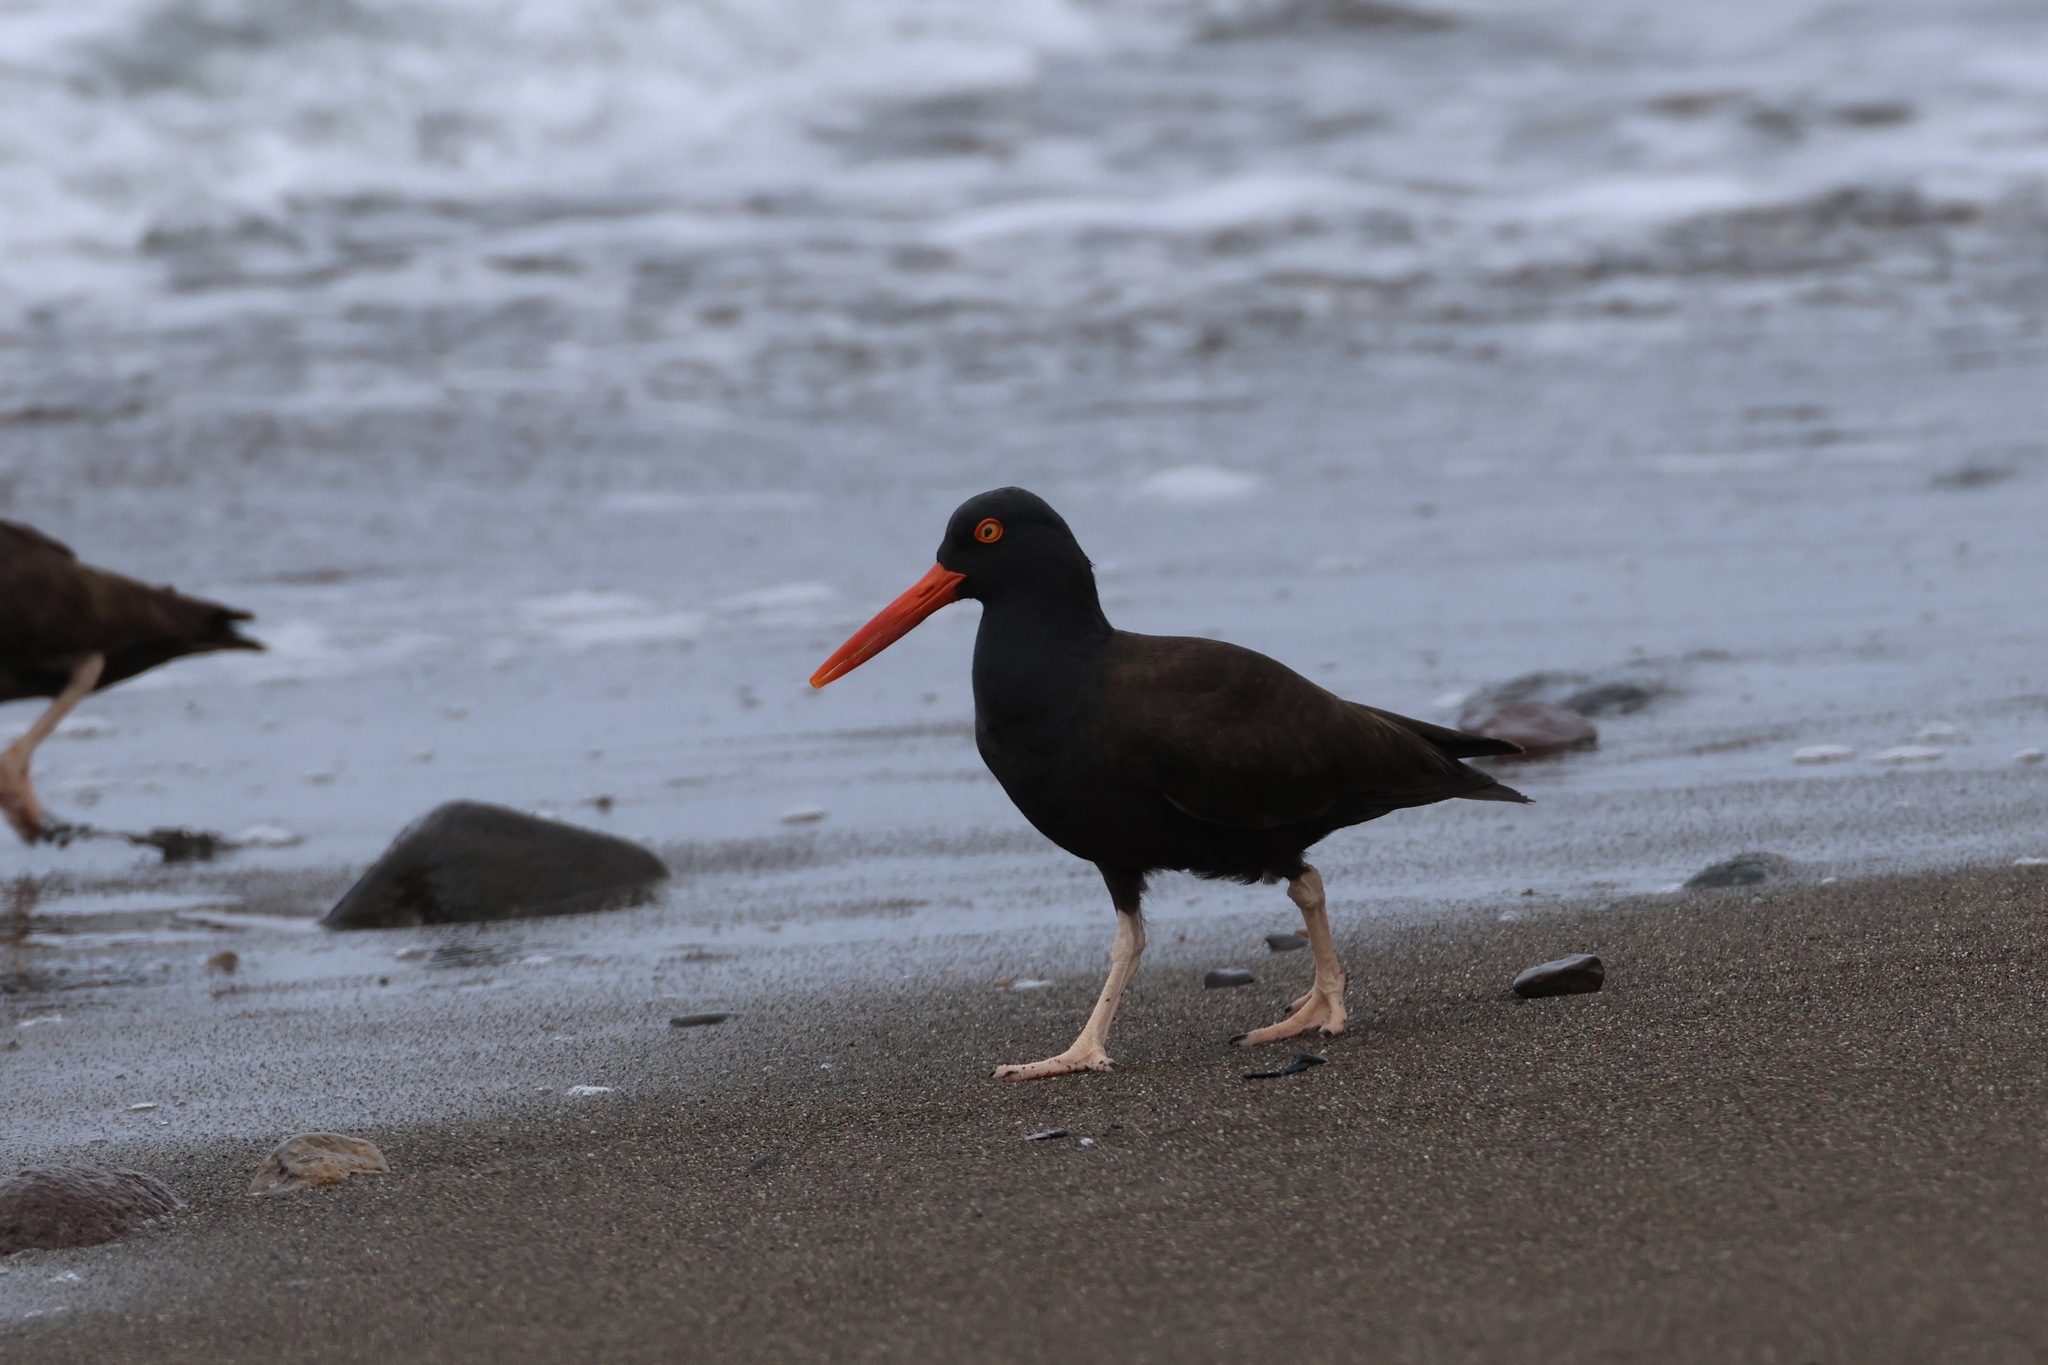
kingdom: Animalia
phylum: Chordata
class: Aves
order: Charadriiformes
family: Haematopodidae
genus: Haematopus
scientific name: Haematopus bachmani
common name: Black oystercatcher
